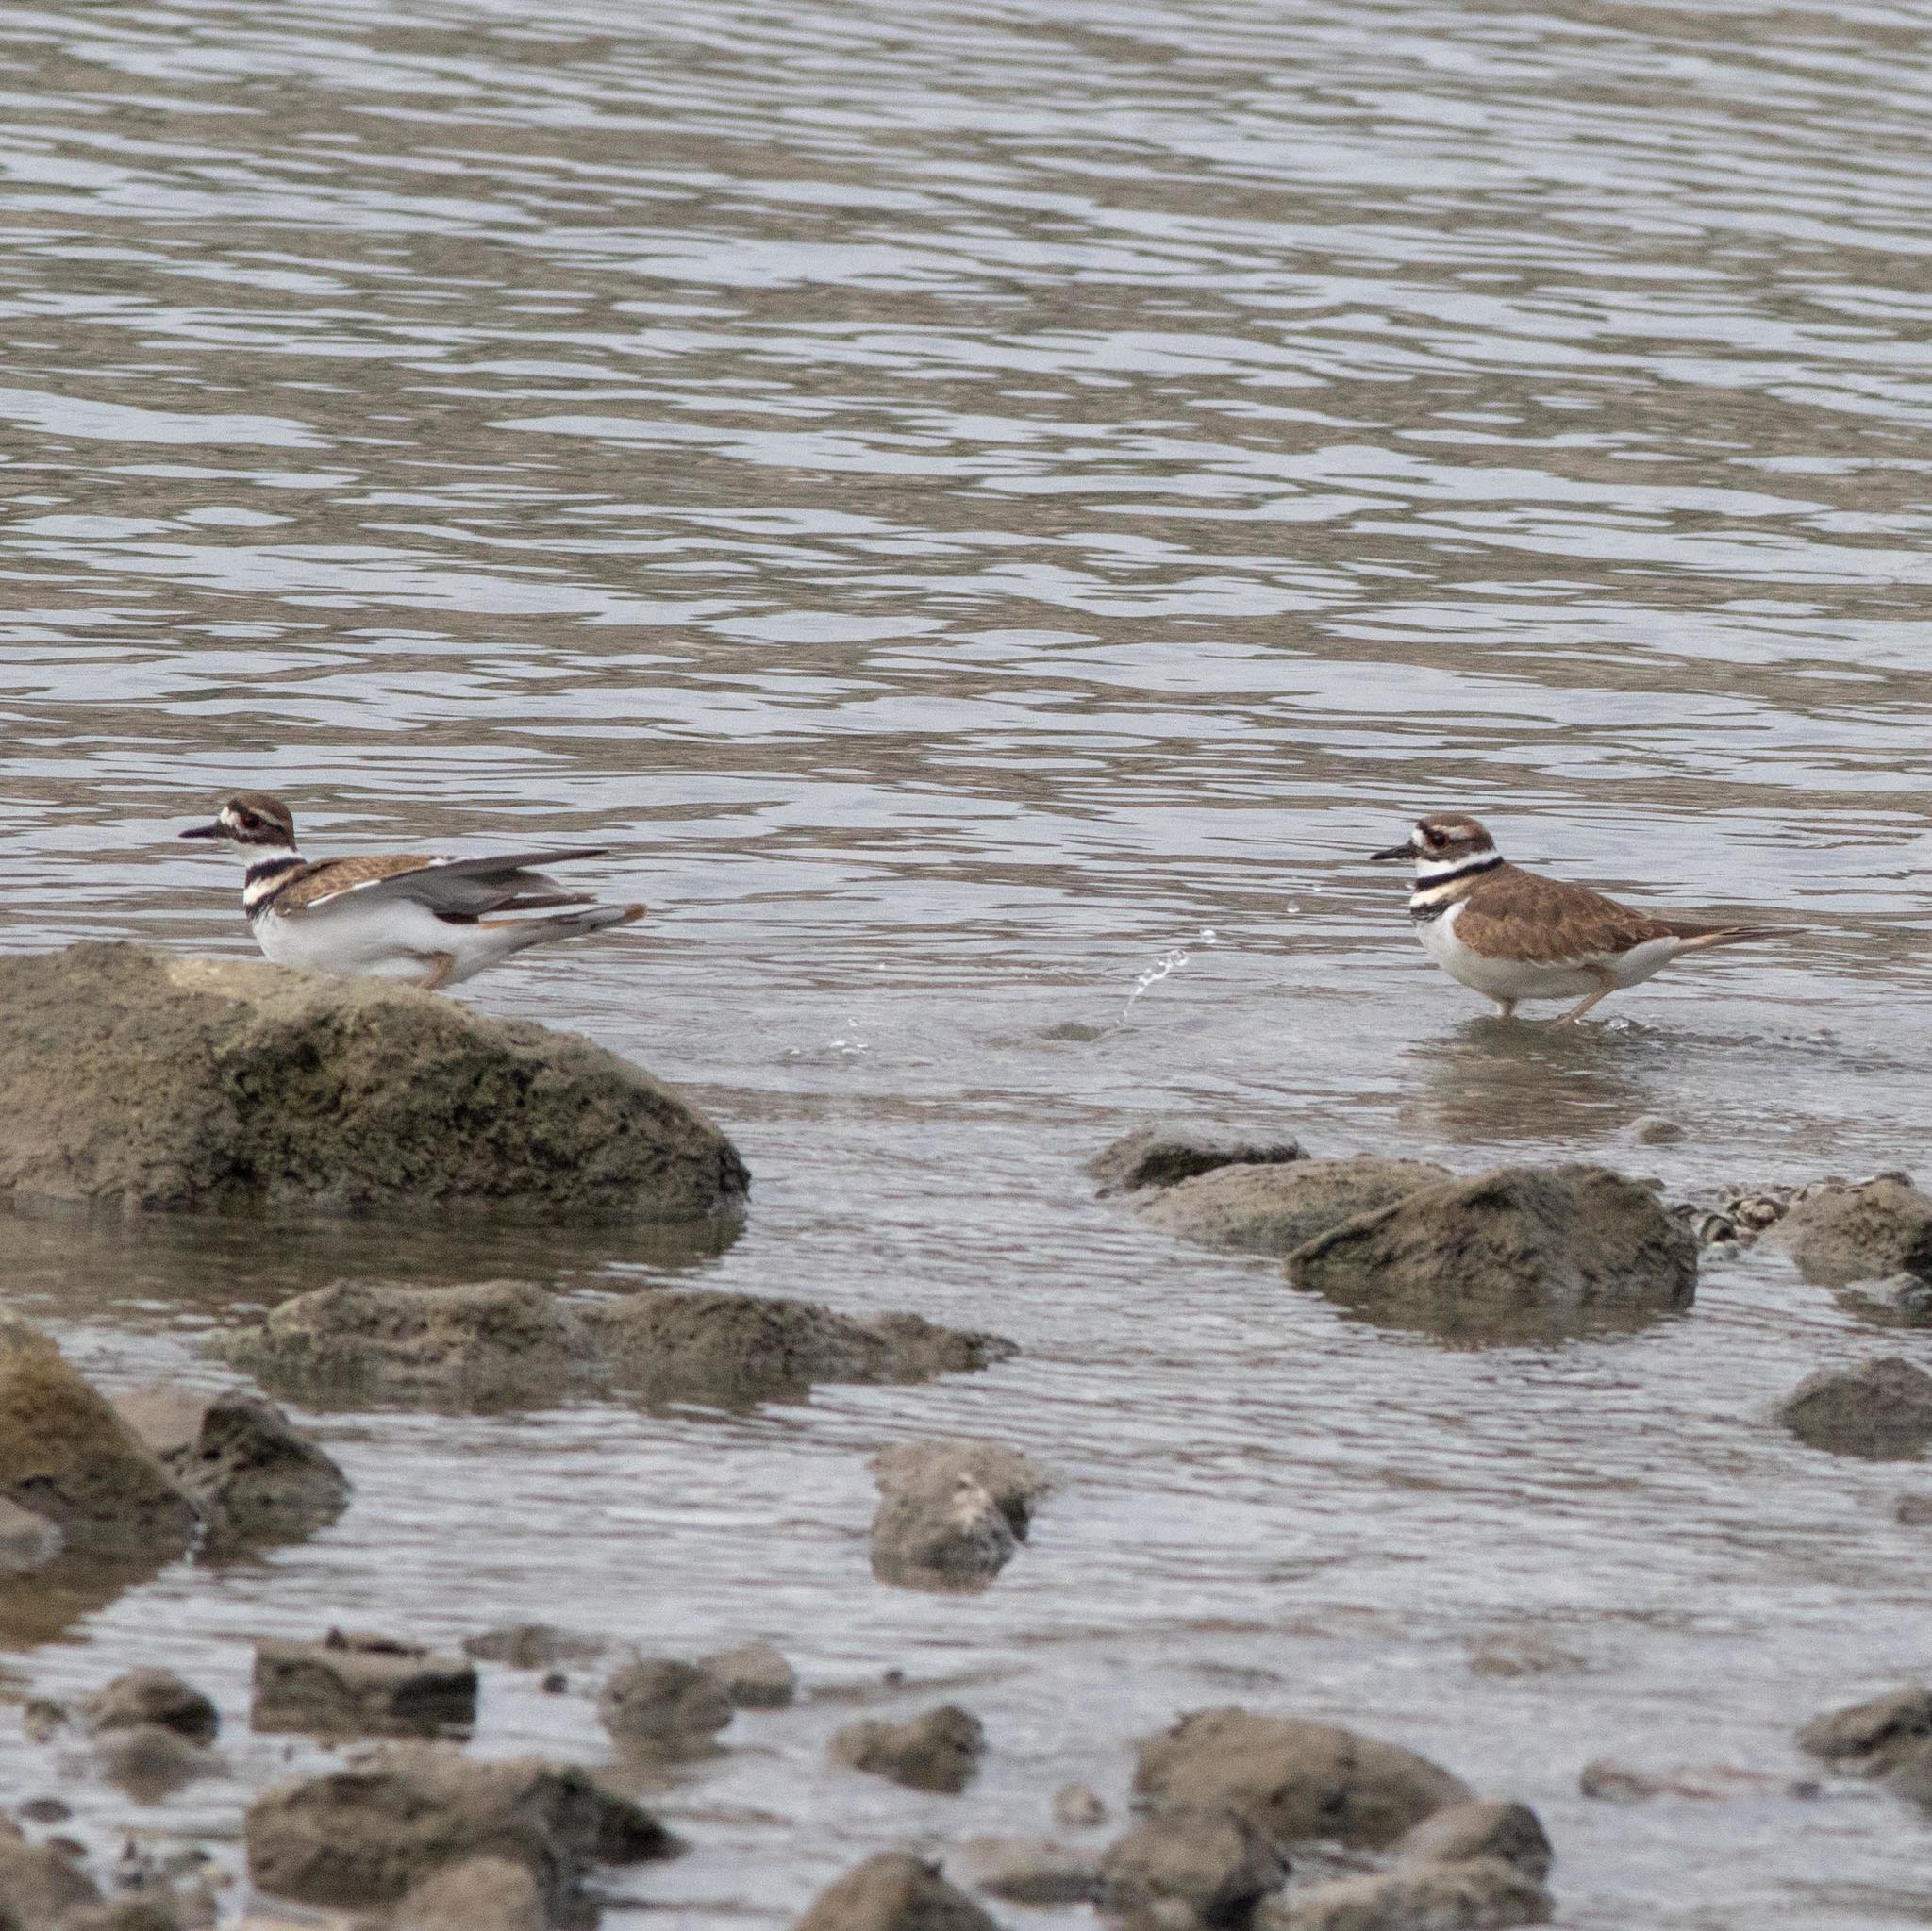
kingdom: Animalia
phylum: Chordata
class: Aves
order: Charadriiformes
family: Charadriidae
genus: Charadrius
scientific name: Charadrius vociferus
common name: Killdeer
